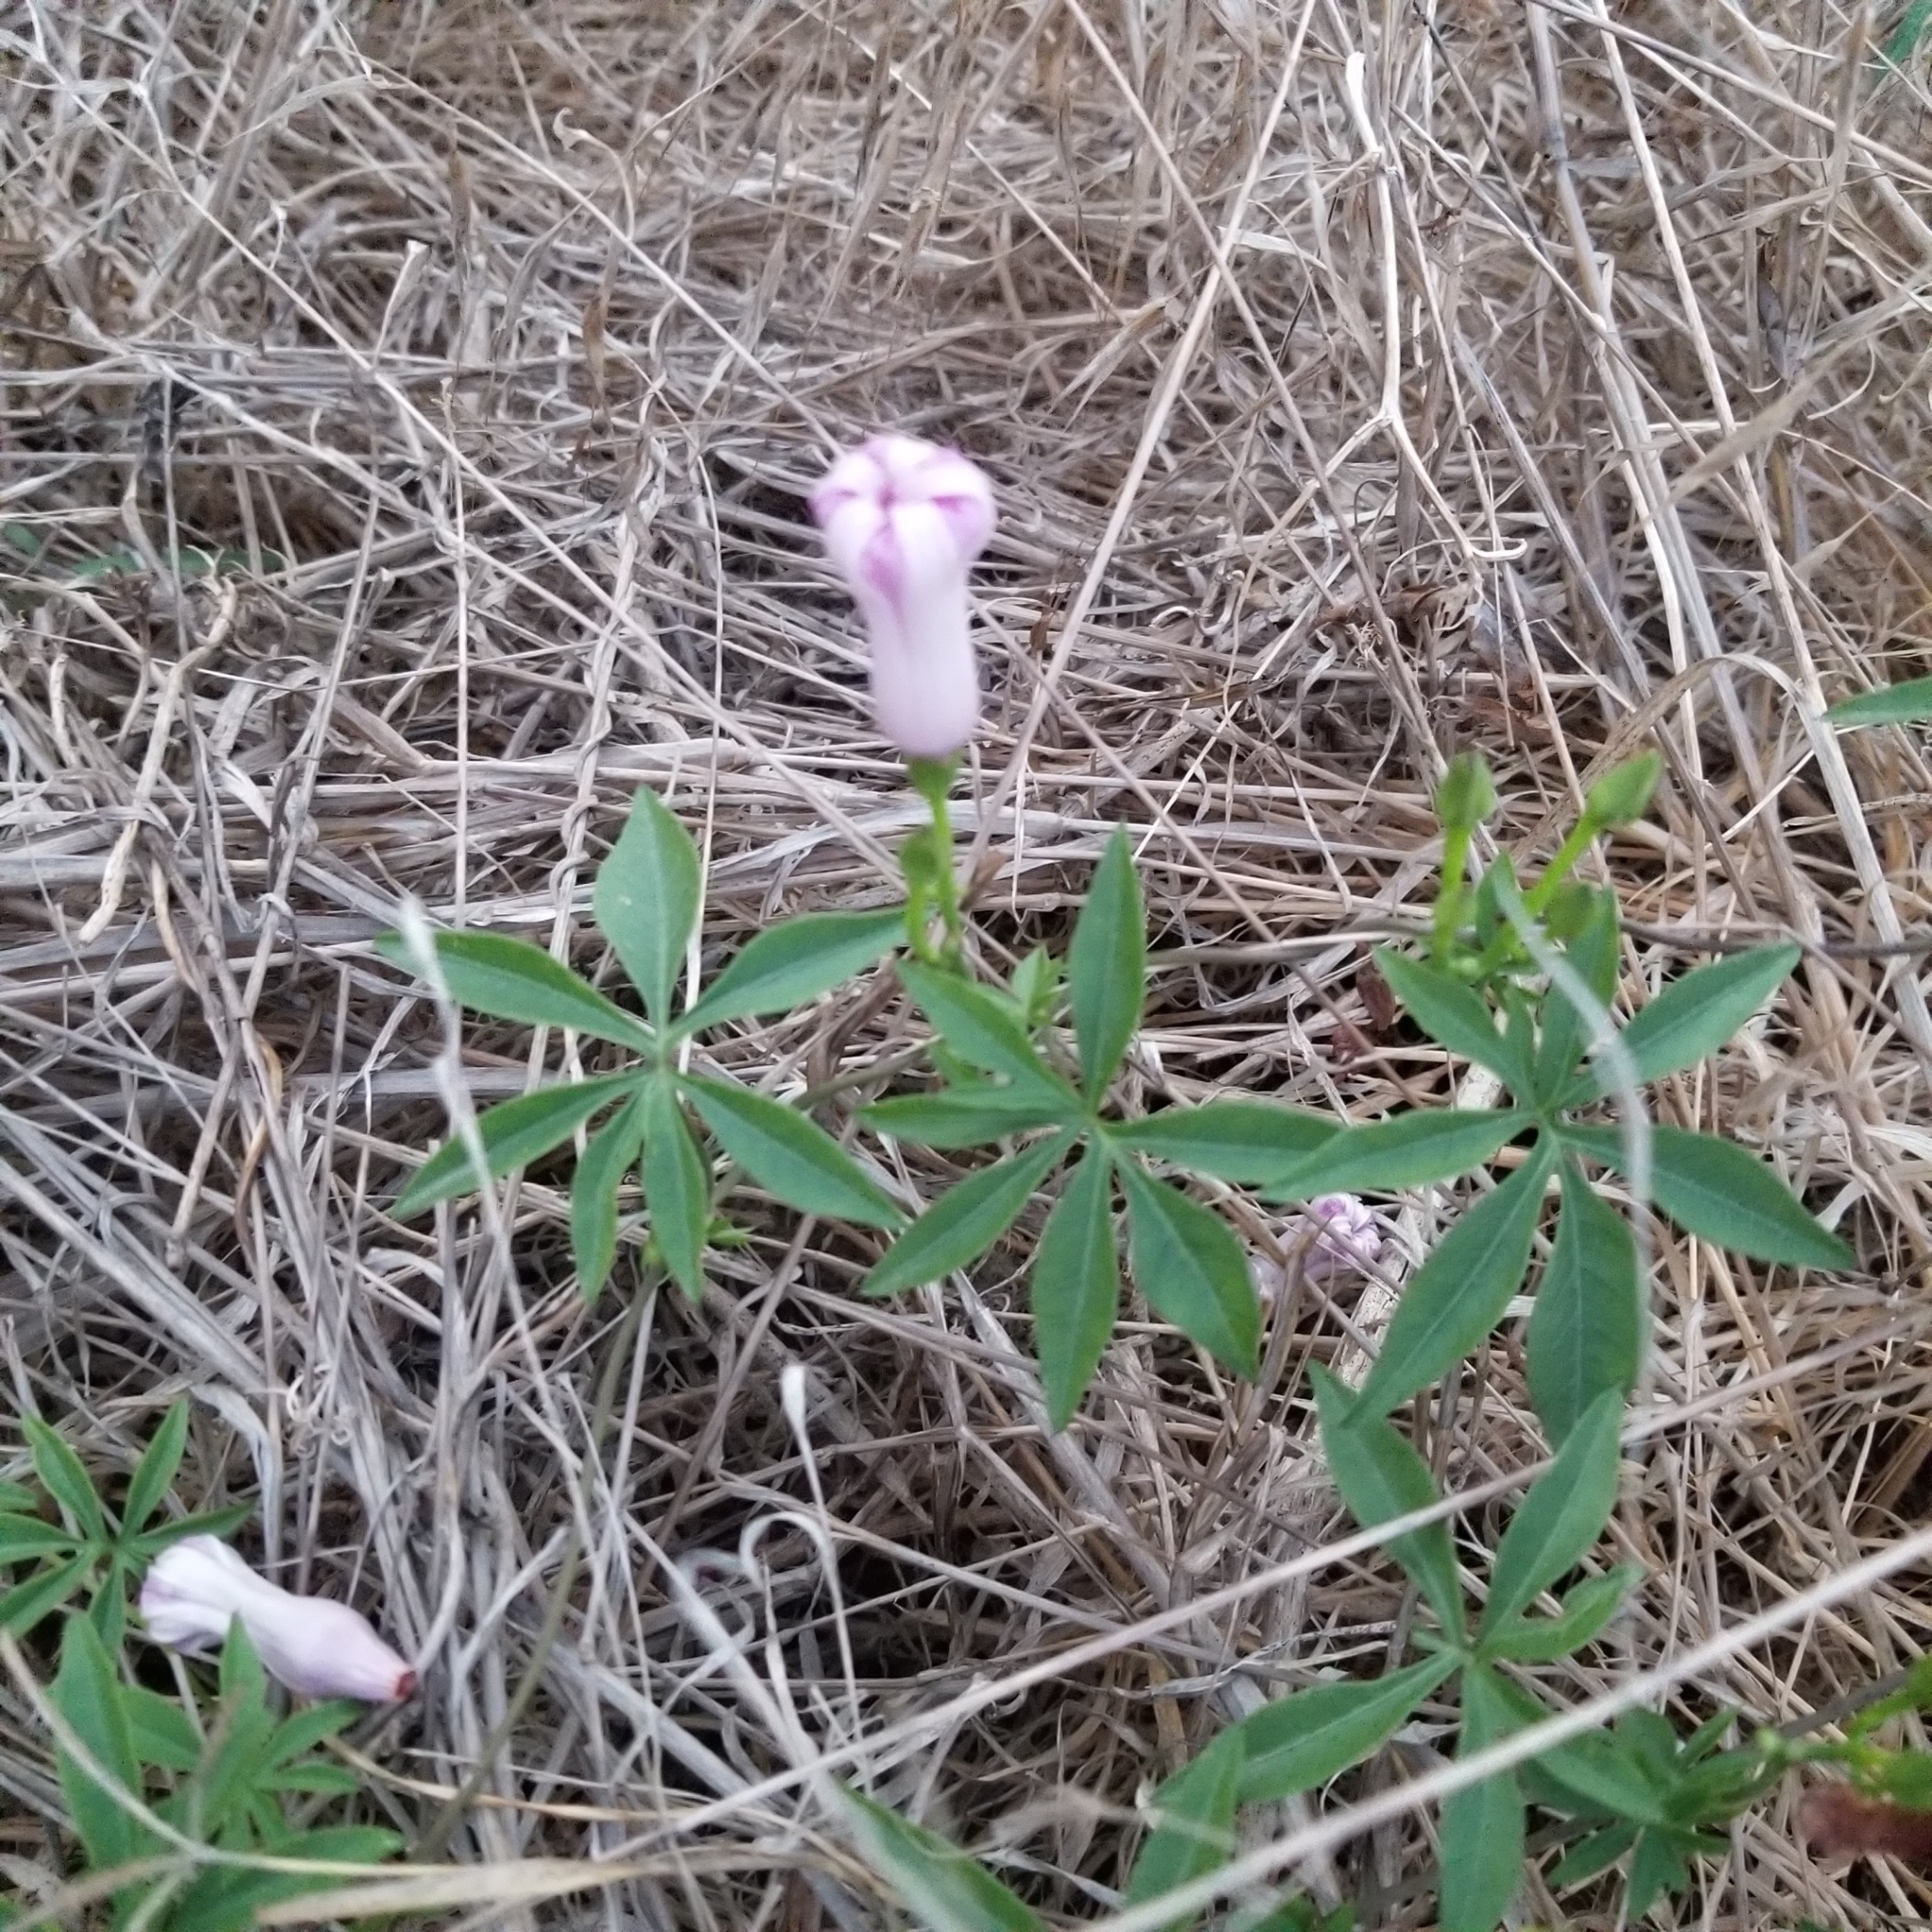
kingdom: Plantae
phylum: Tracheophyta
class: Magnoliopsida
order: Solanales
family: Convolvulaceae
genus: Ipomoea
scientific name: Ipomoea cairica
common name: Mile a minute vine
